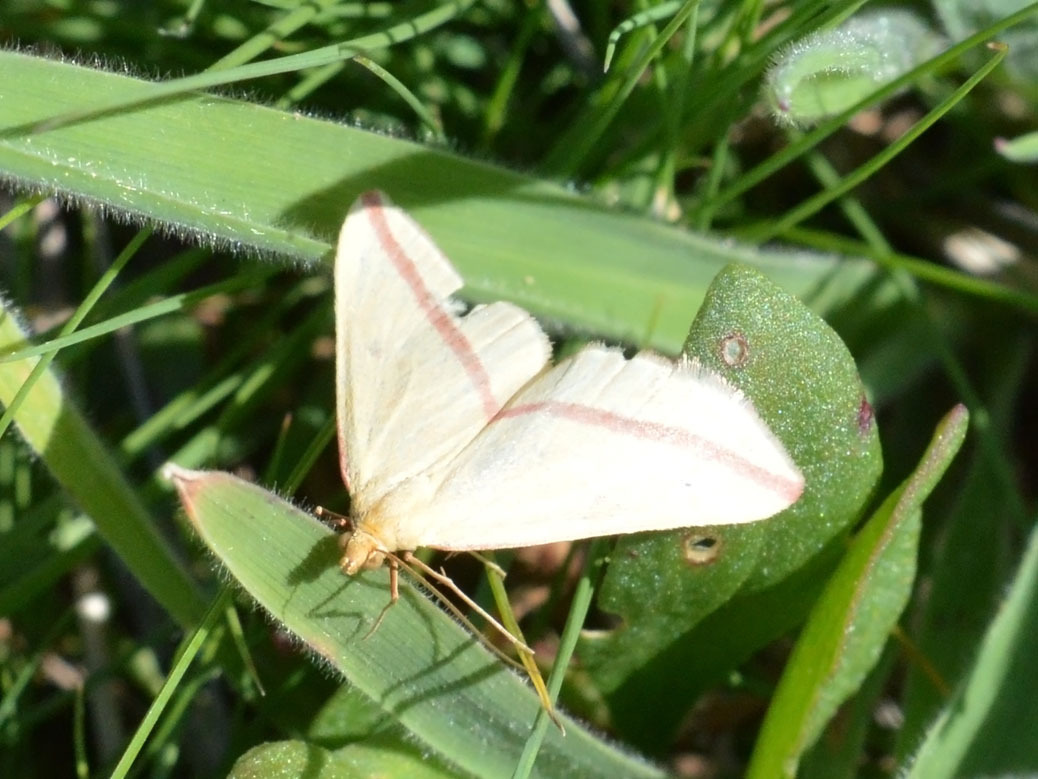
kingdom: Animalia
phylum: Arthropoda
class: Insecta
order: Lepidoptera
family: Geometridae
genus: Rhodometra
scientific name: Rhodometra sacraria
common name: Vestal
